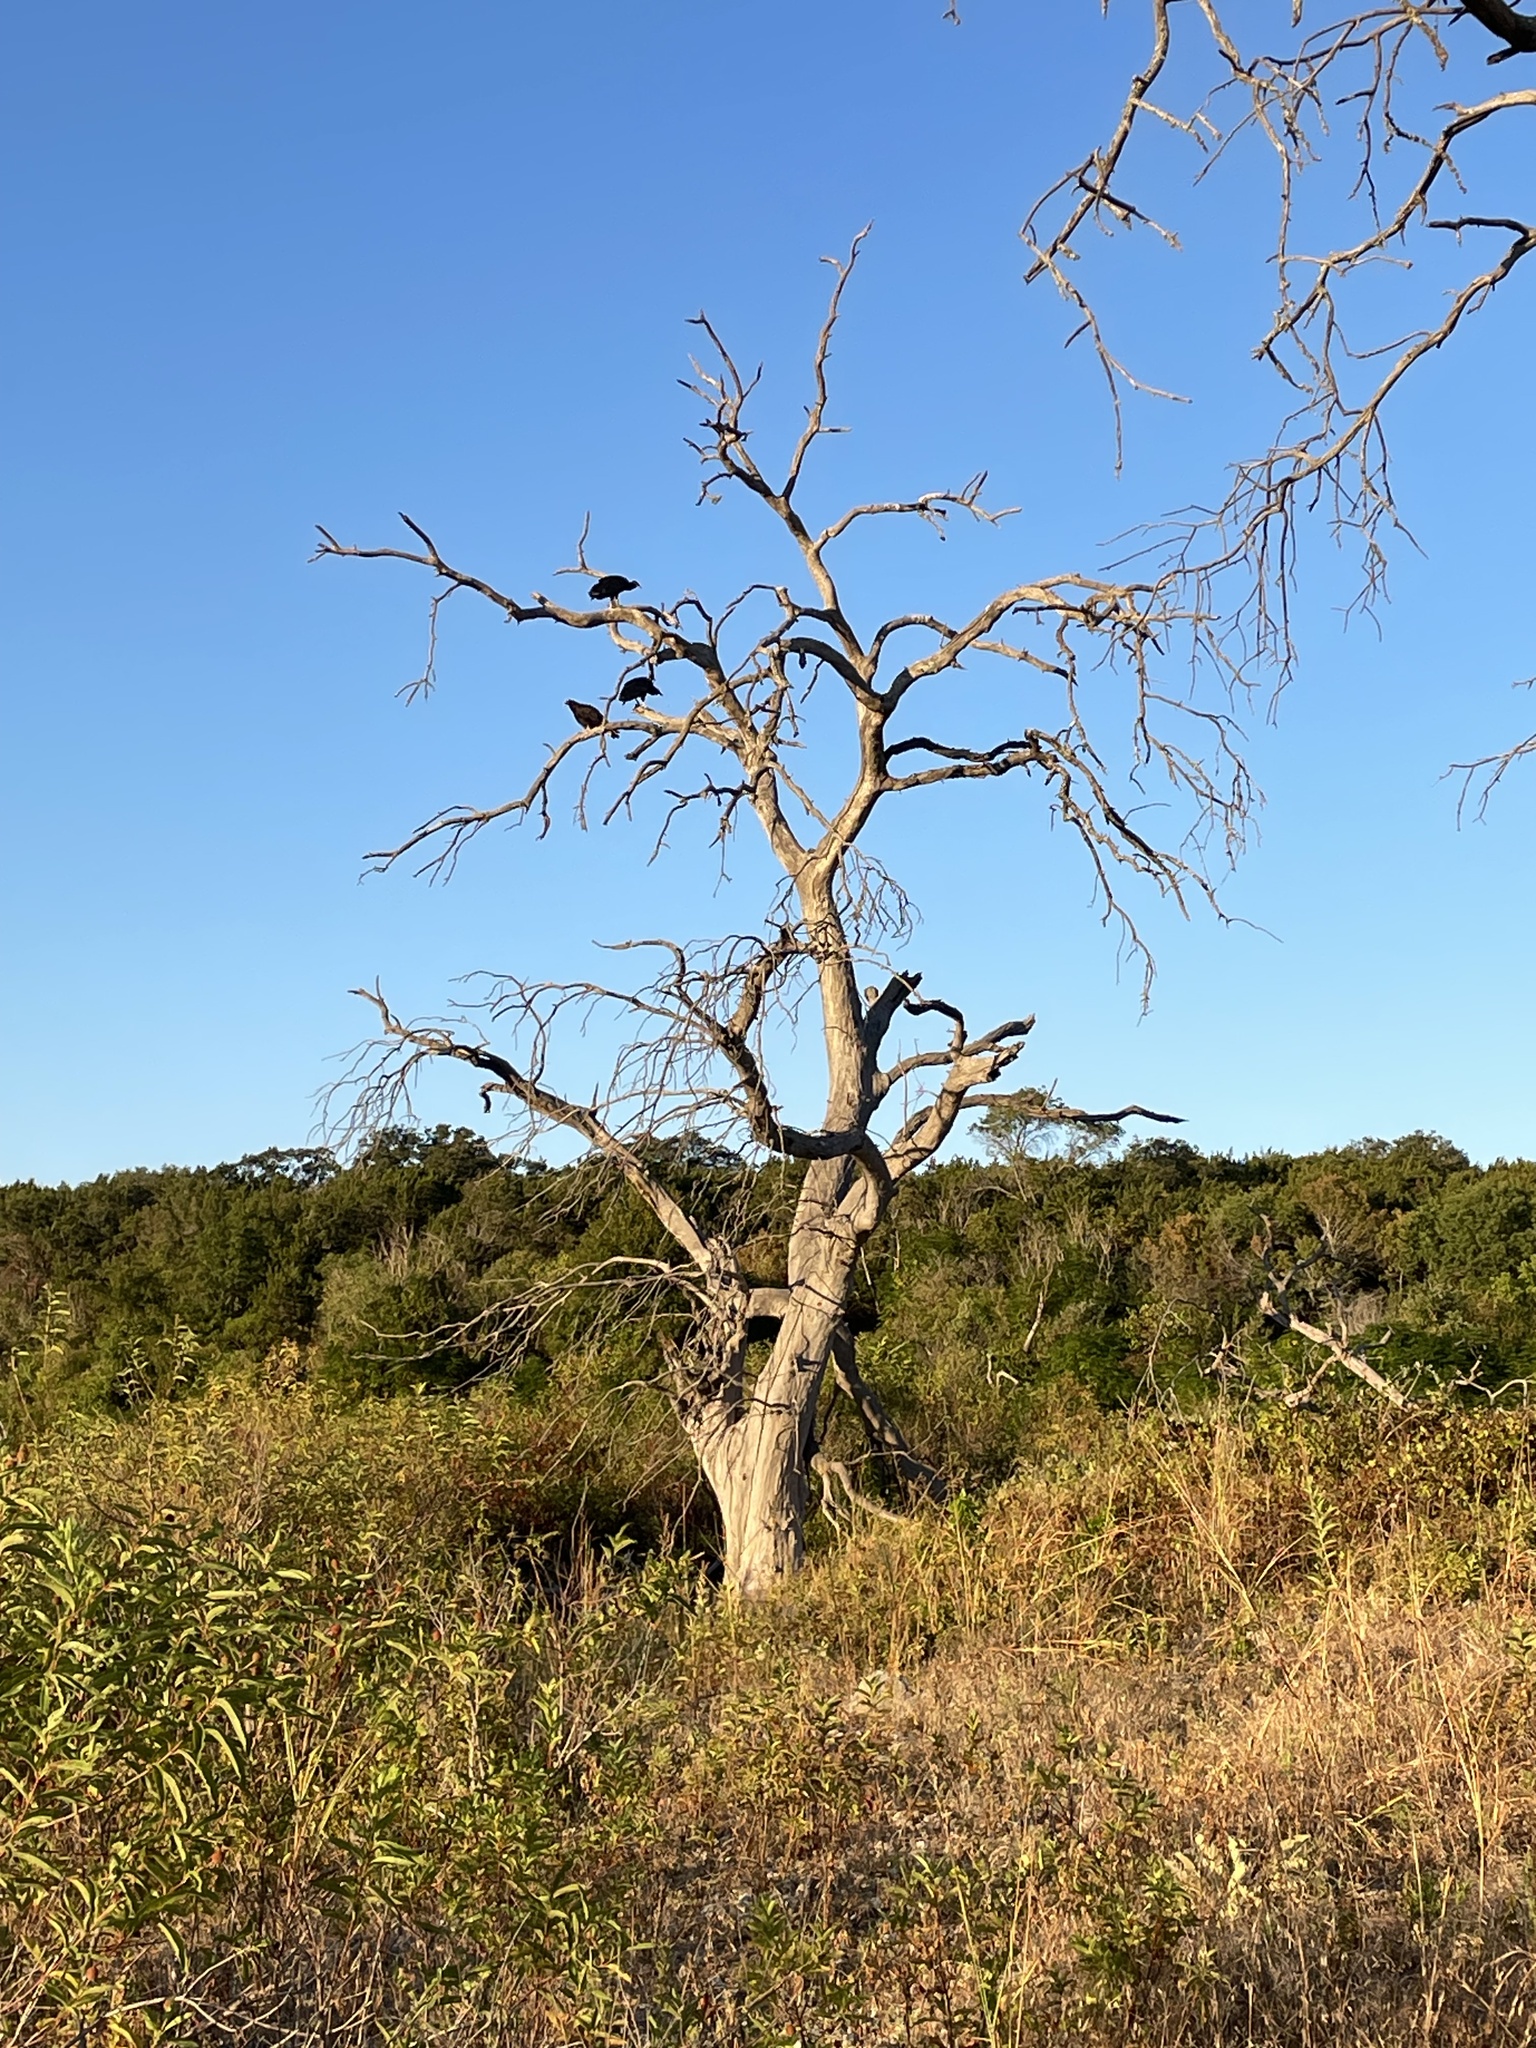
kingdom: Plantae
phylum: Tracheophyta
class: Magnoliopsida
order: Fagales
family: Fagaceae
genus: Quercus
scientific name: Quercus fusiformis
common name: Texas live oak
